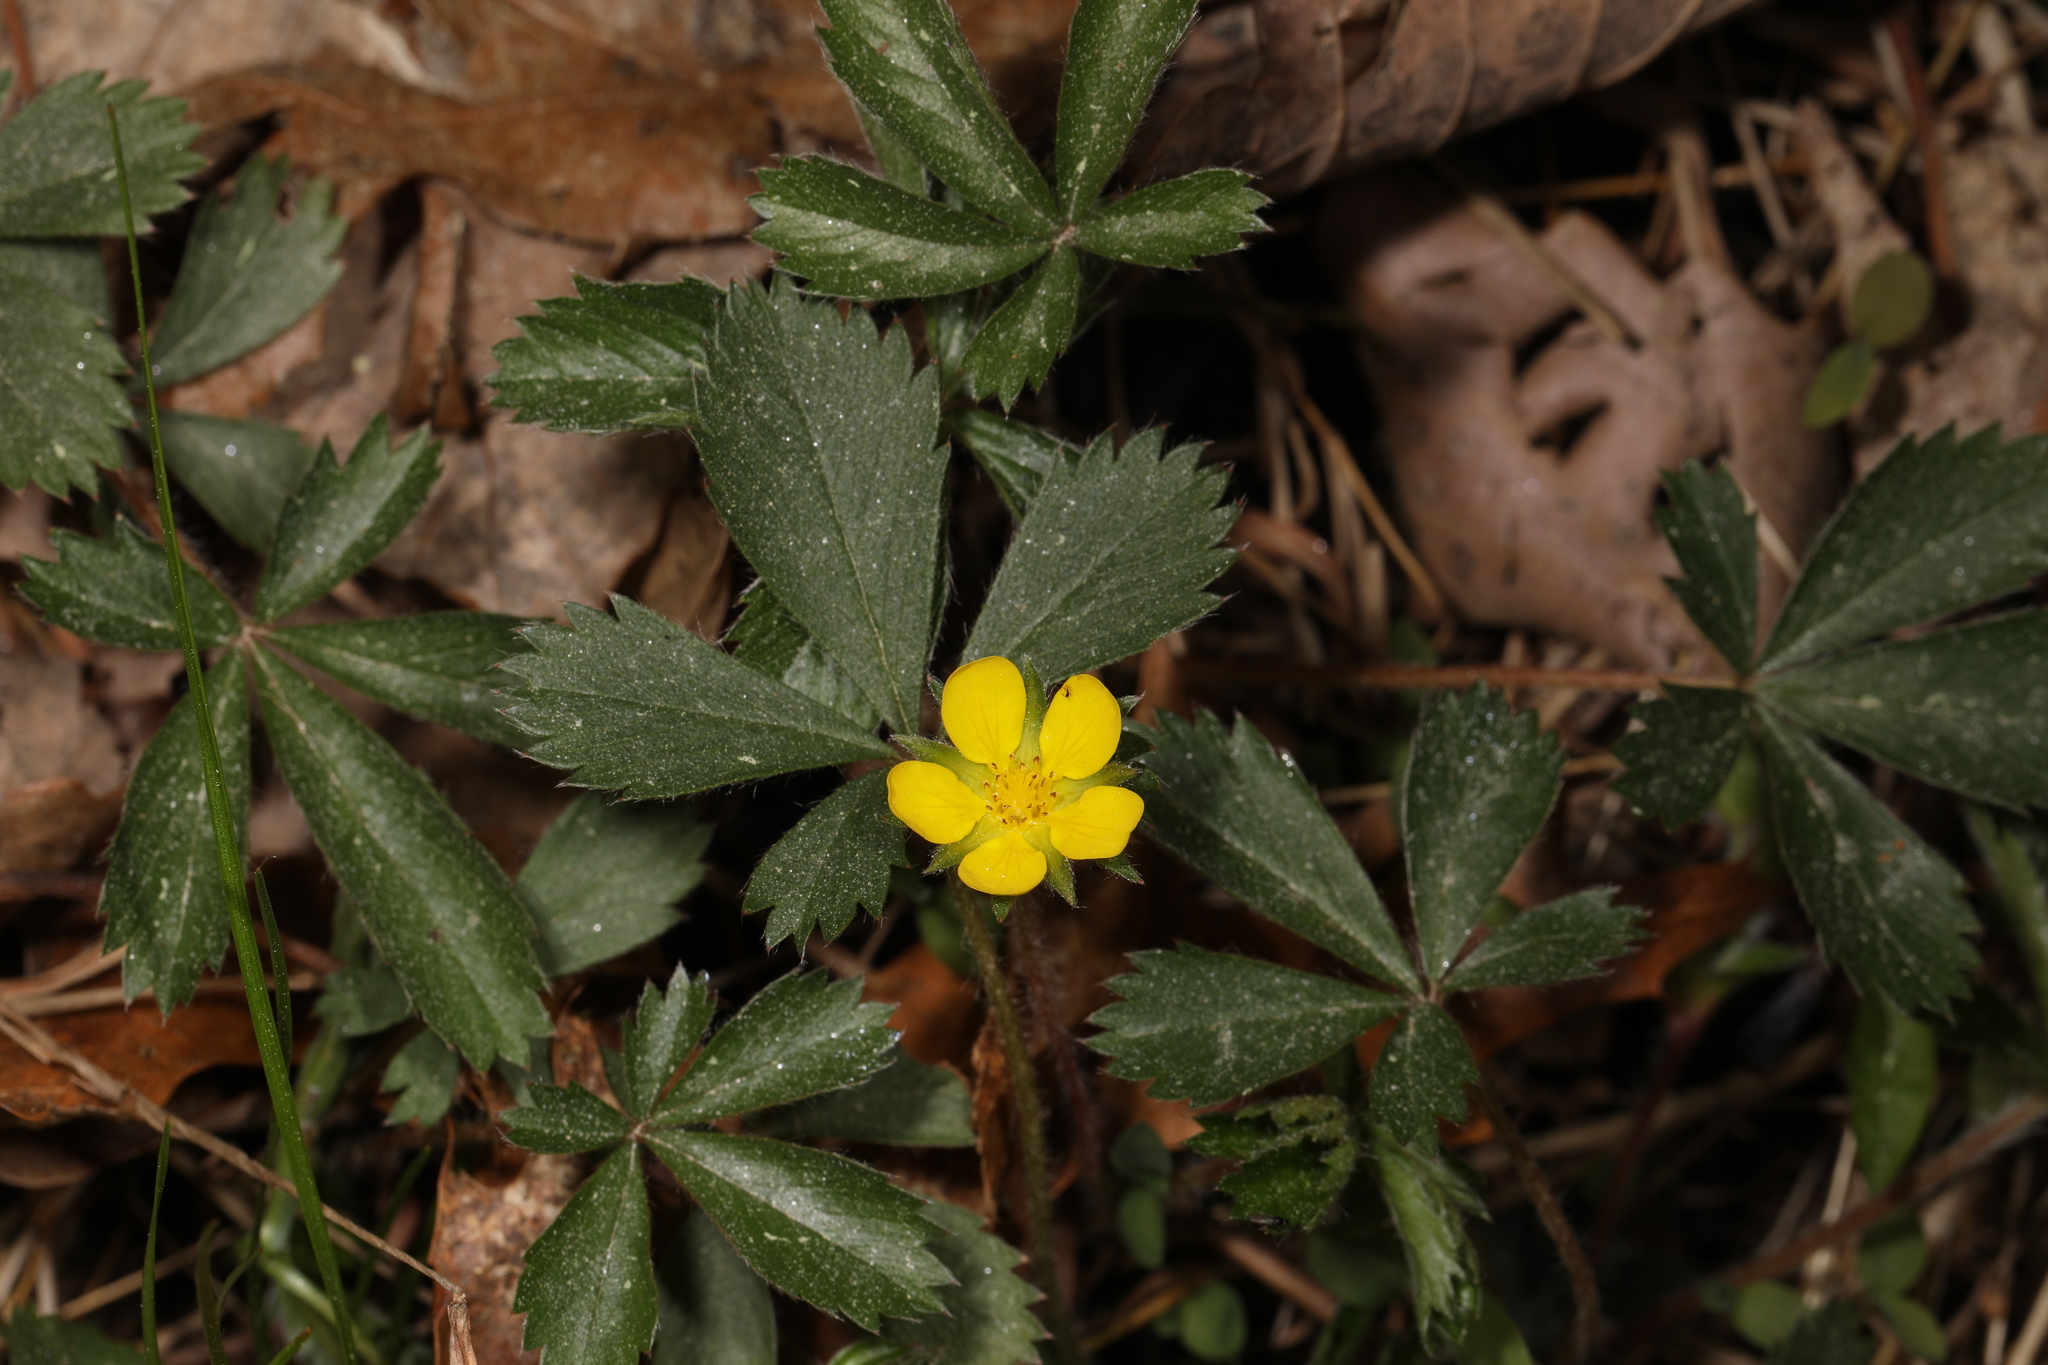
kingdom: Plantae
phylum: Tracheophyta
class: Magnoliopsida
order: Rosales
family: Rosaceae
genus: Potentilla
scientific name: Potentilla canadensis
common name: Canada cinquefoil
